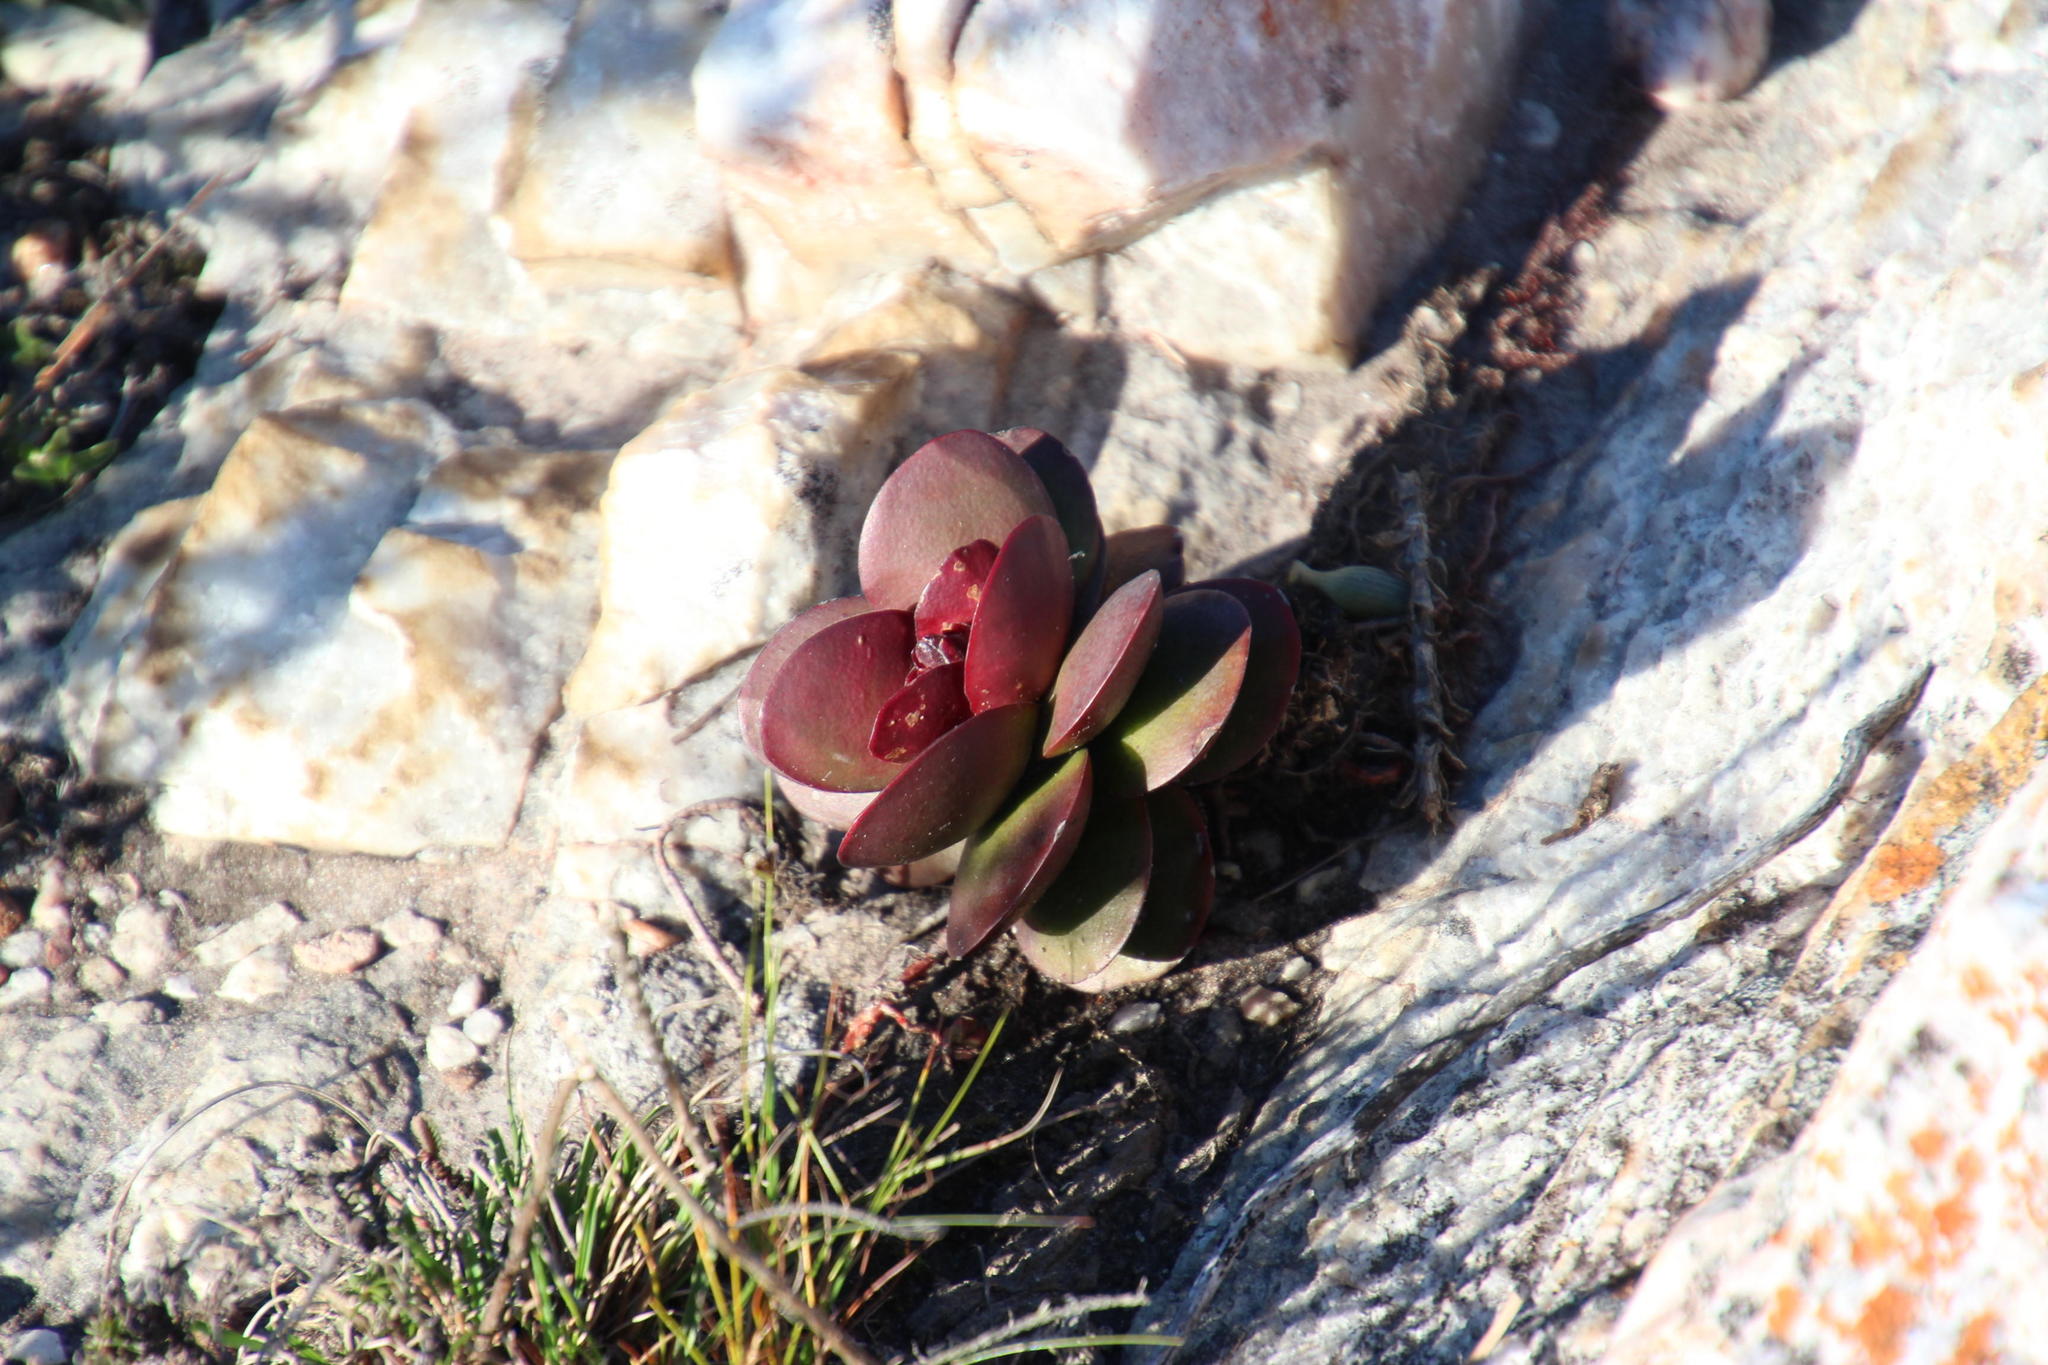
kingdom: Plantae
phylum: Tracheophyta
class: Magnoliopsida
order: Saxifragales
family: Crassulaceae
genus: Crassula
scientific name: Crassula rubricaulis
